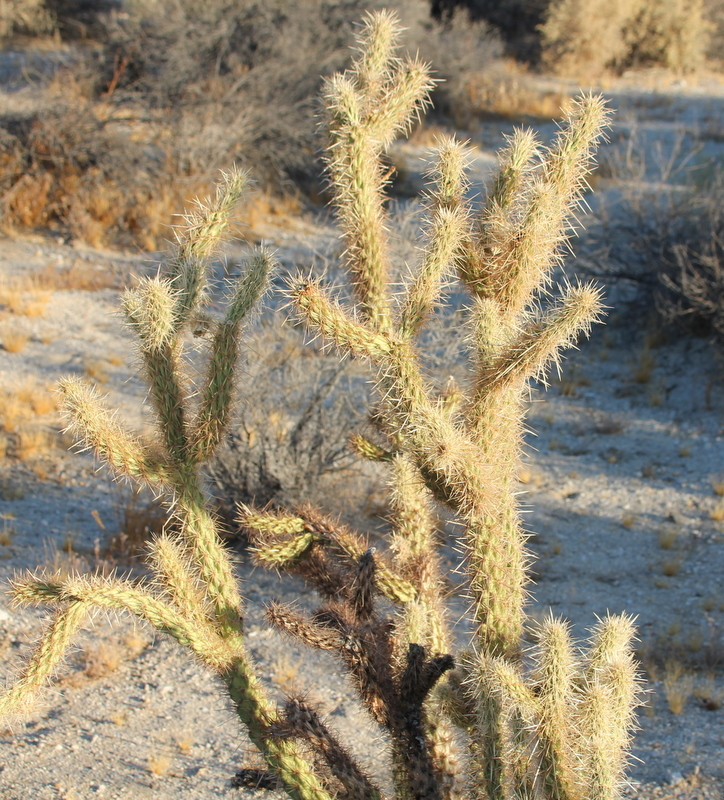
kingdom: Plantae
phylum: Tracheophyta
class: Magnoliopsida
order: Caryophyllales
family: Cactaceae
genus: Cylindropuntia
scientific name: Cylindropuntia ganderi
